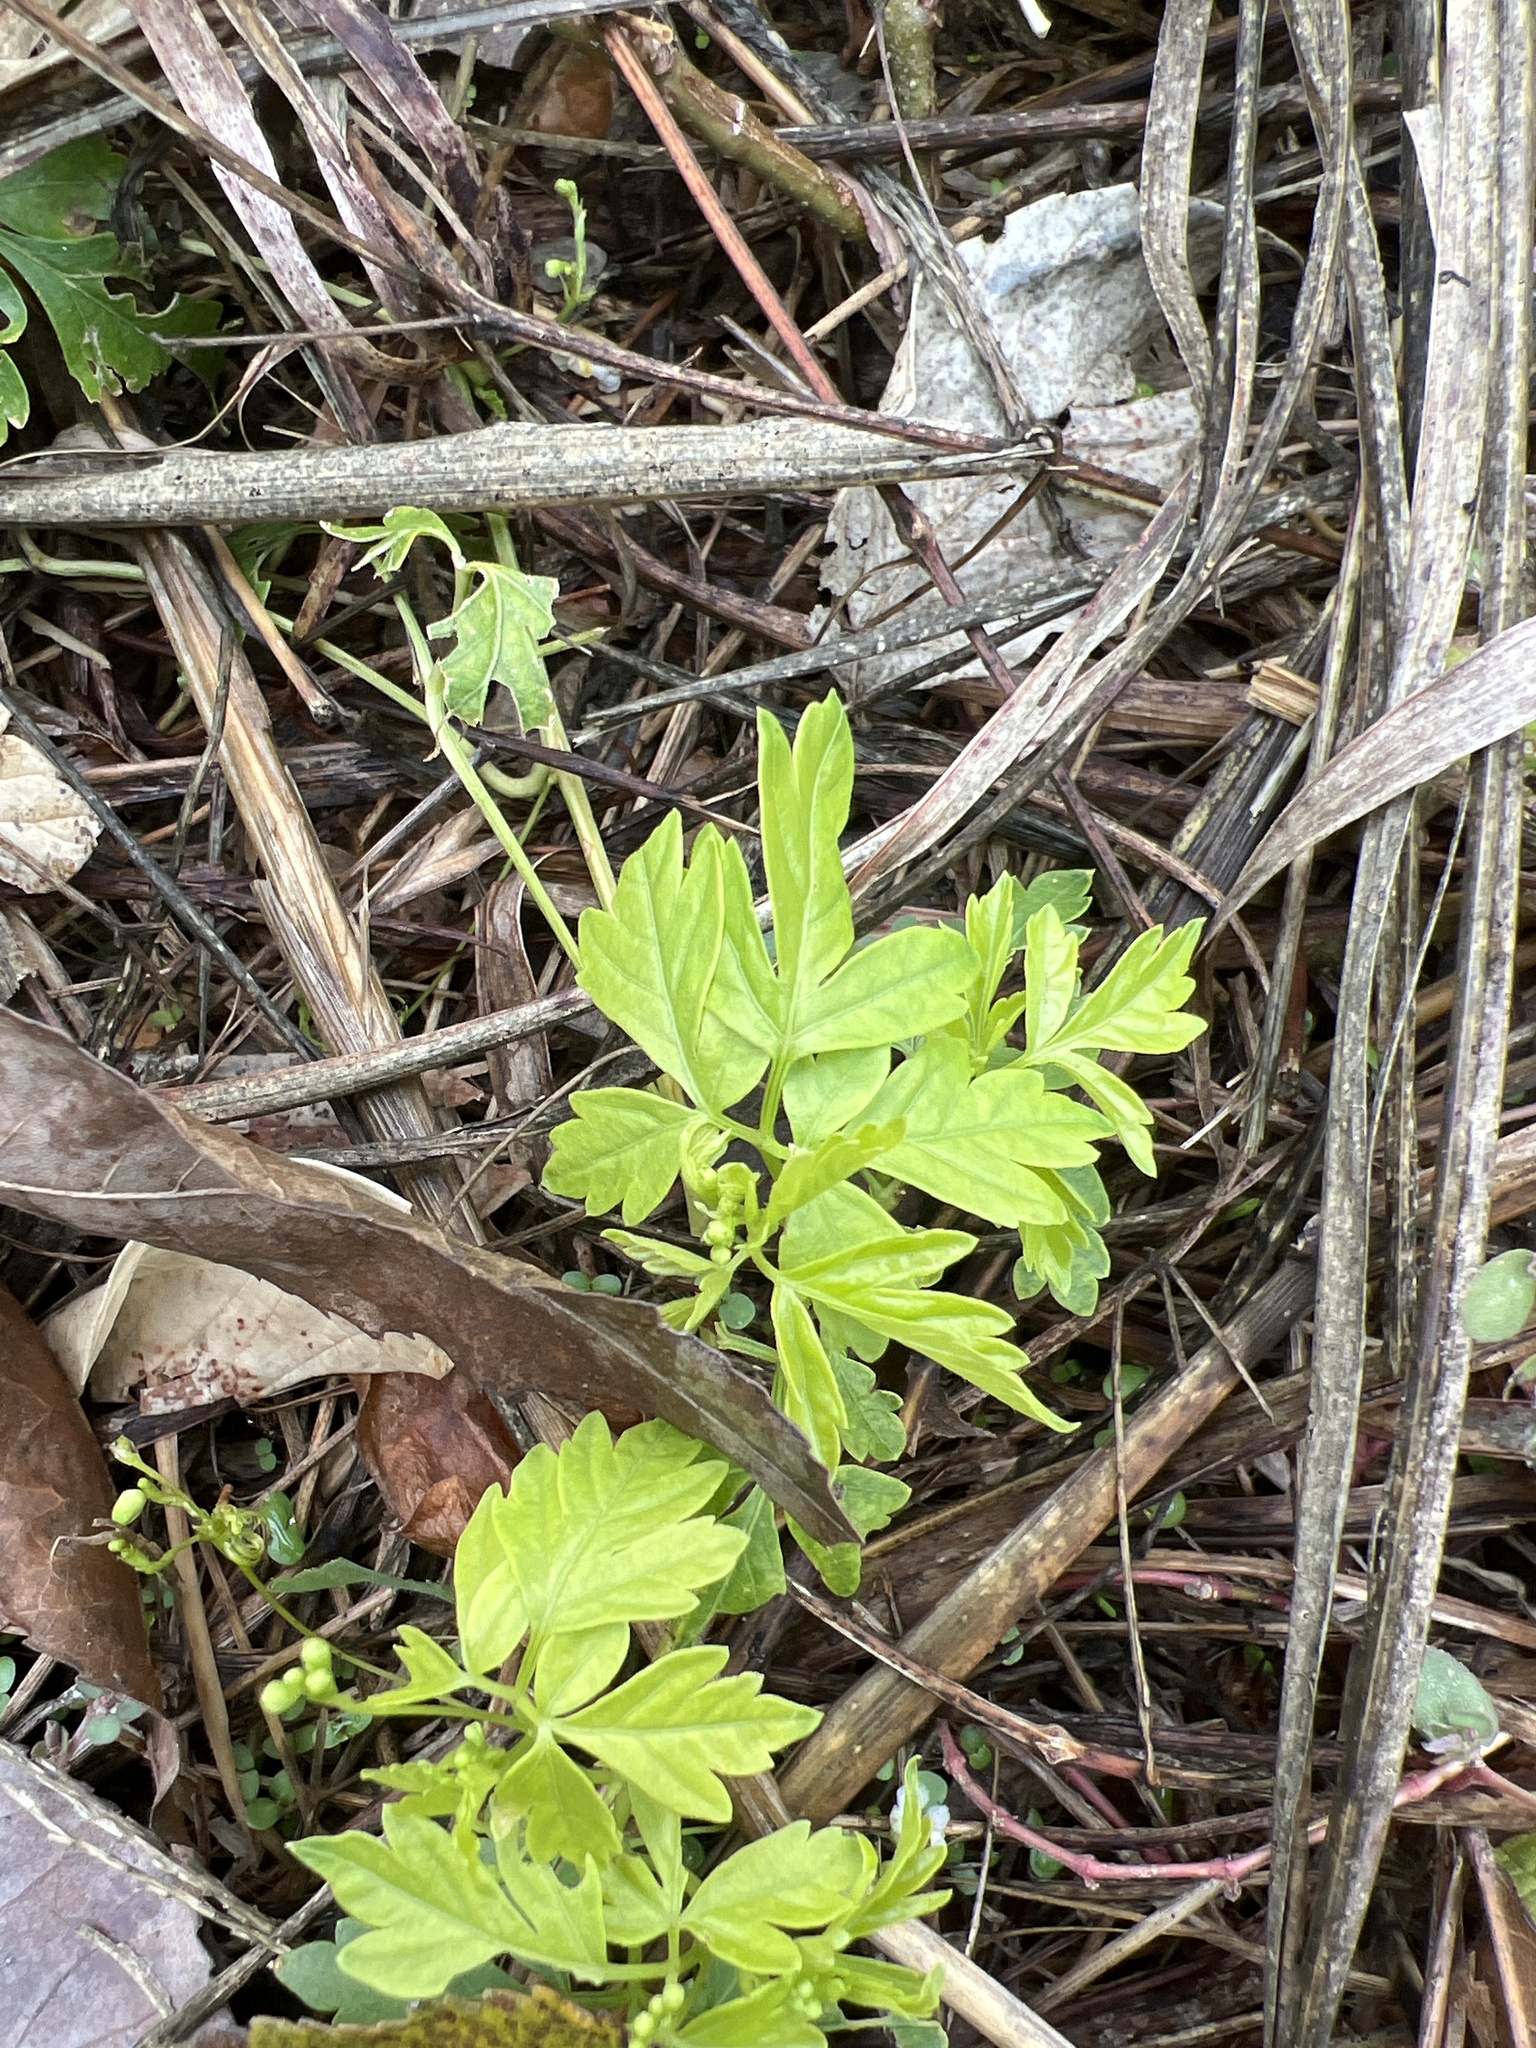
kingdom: Plantae
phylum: Tracheophyta
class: Magnoliopsida
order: Sapindales
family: Sapindaceae
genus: Cardiospermum
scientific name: Cardiospermum halicacabum
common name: Balloon vine
